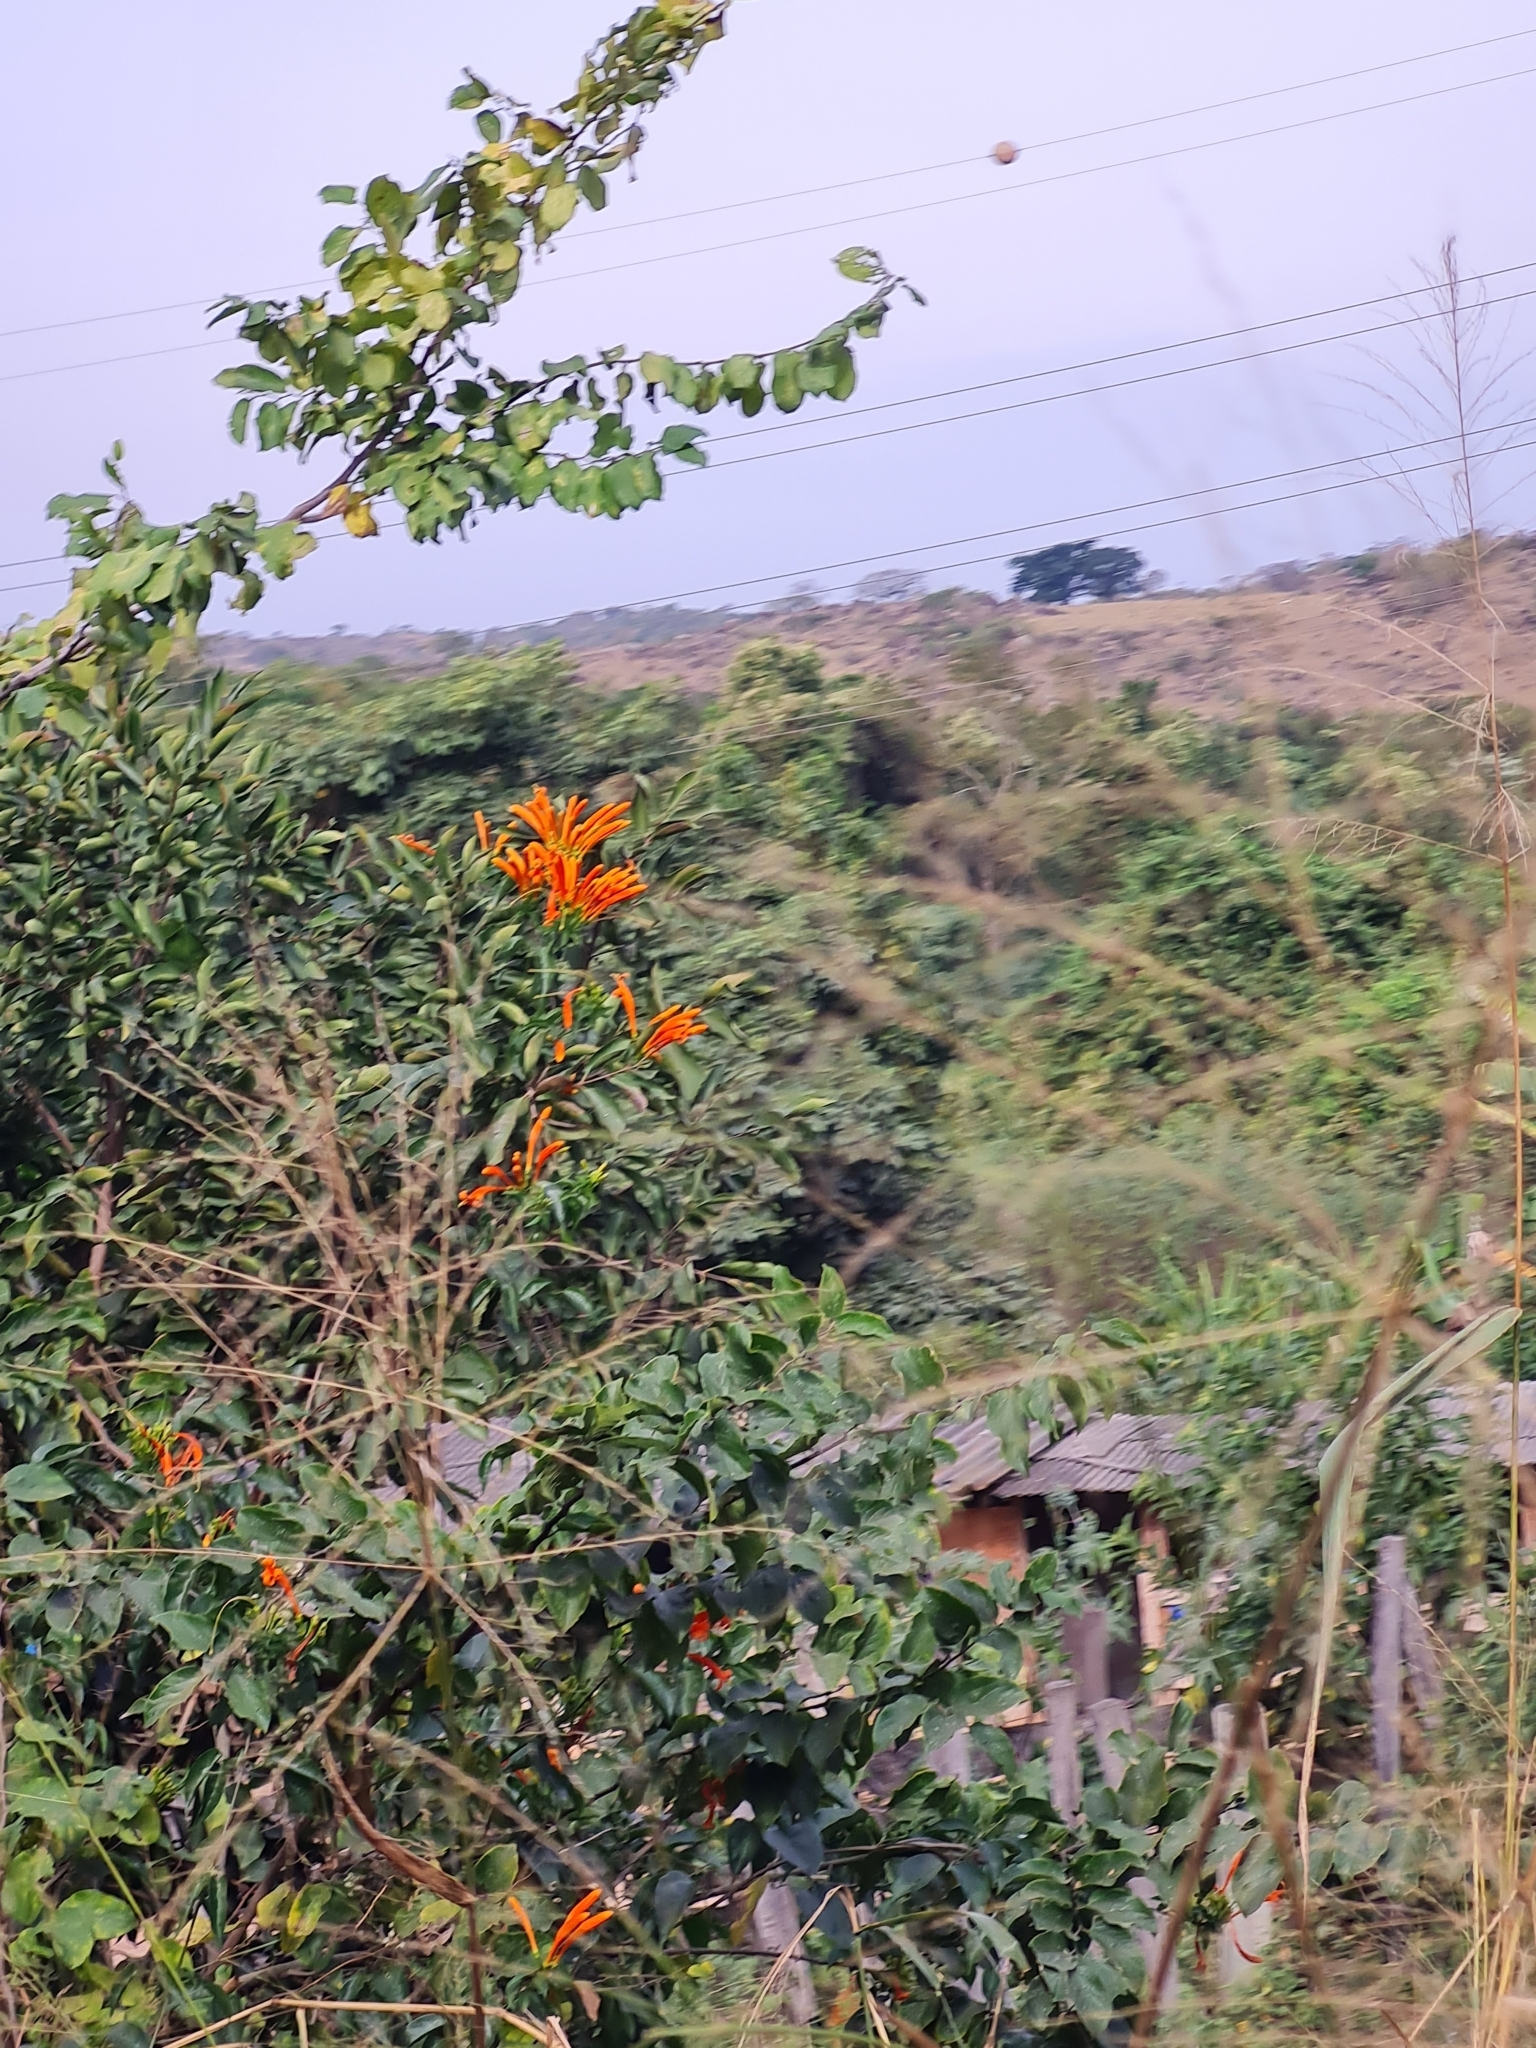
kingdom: Plantae
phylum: Tracheophyta
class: Magnoliopsida
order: Lamiales
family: Bignoniaceae
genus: Pyrostegia
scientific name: Pyrostegia venusta
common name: Flamevine
